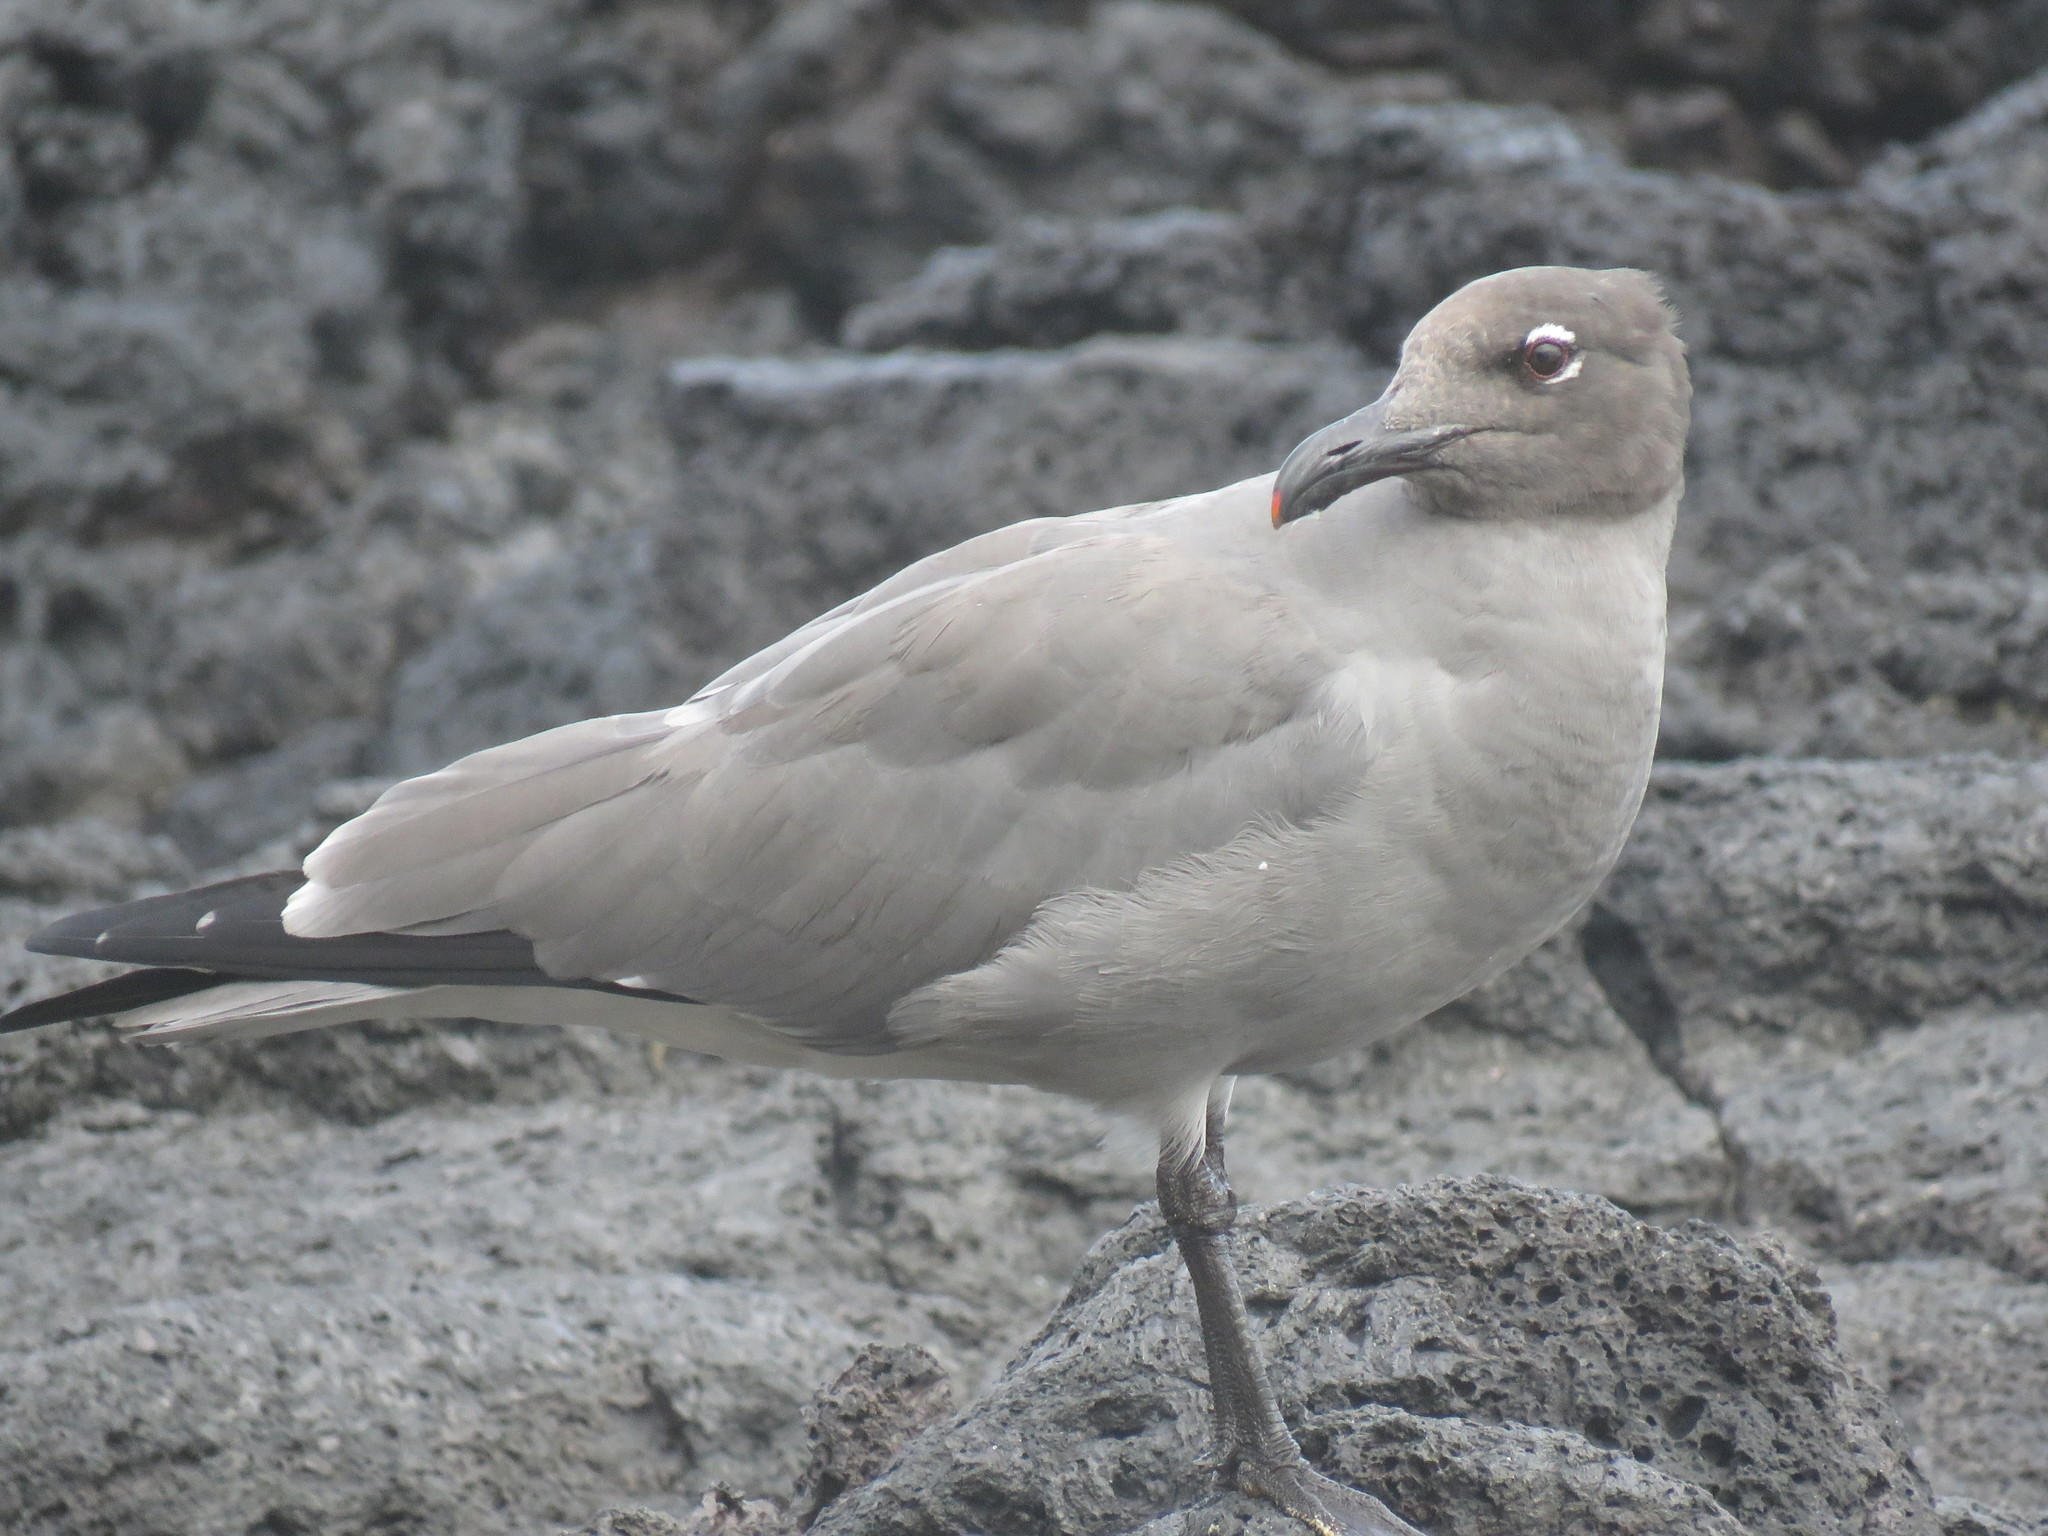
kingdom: Animalia
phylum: Chordata
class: Aves
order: Charadriiformes
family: Laridae
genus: Leucophaeus
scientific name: Leucophaeus fuliginosus
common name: Lava gull
